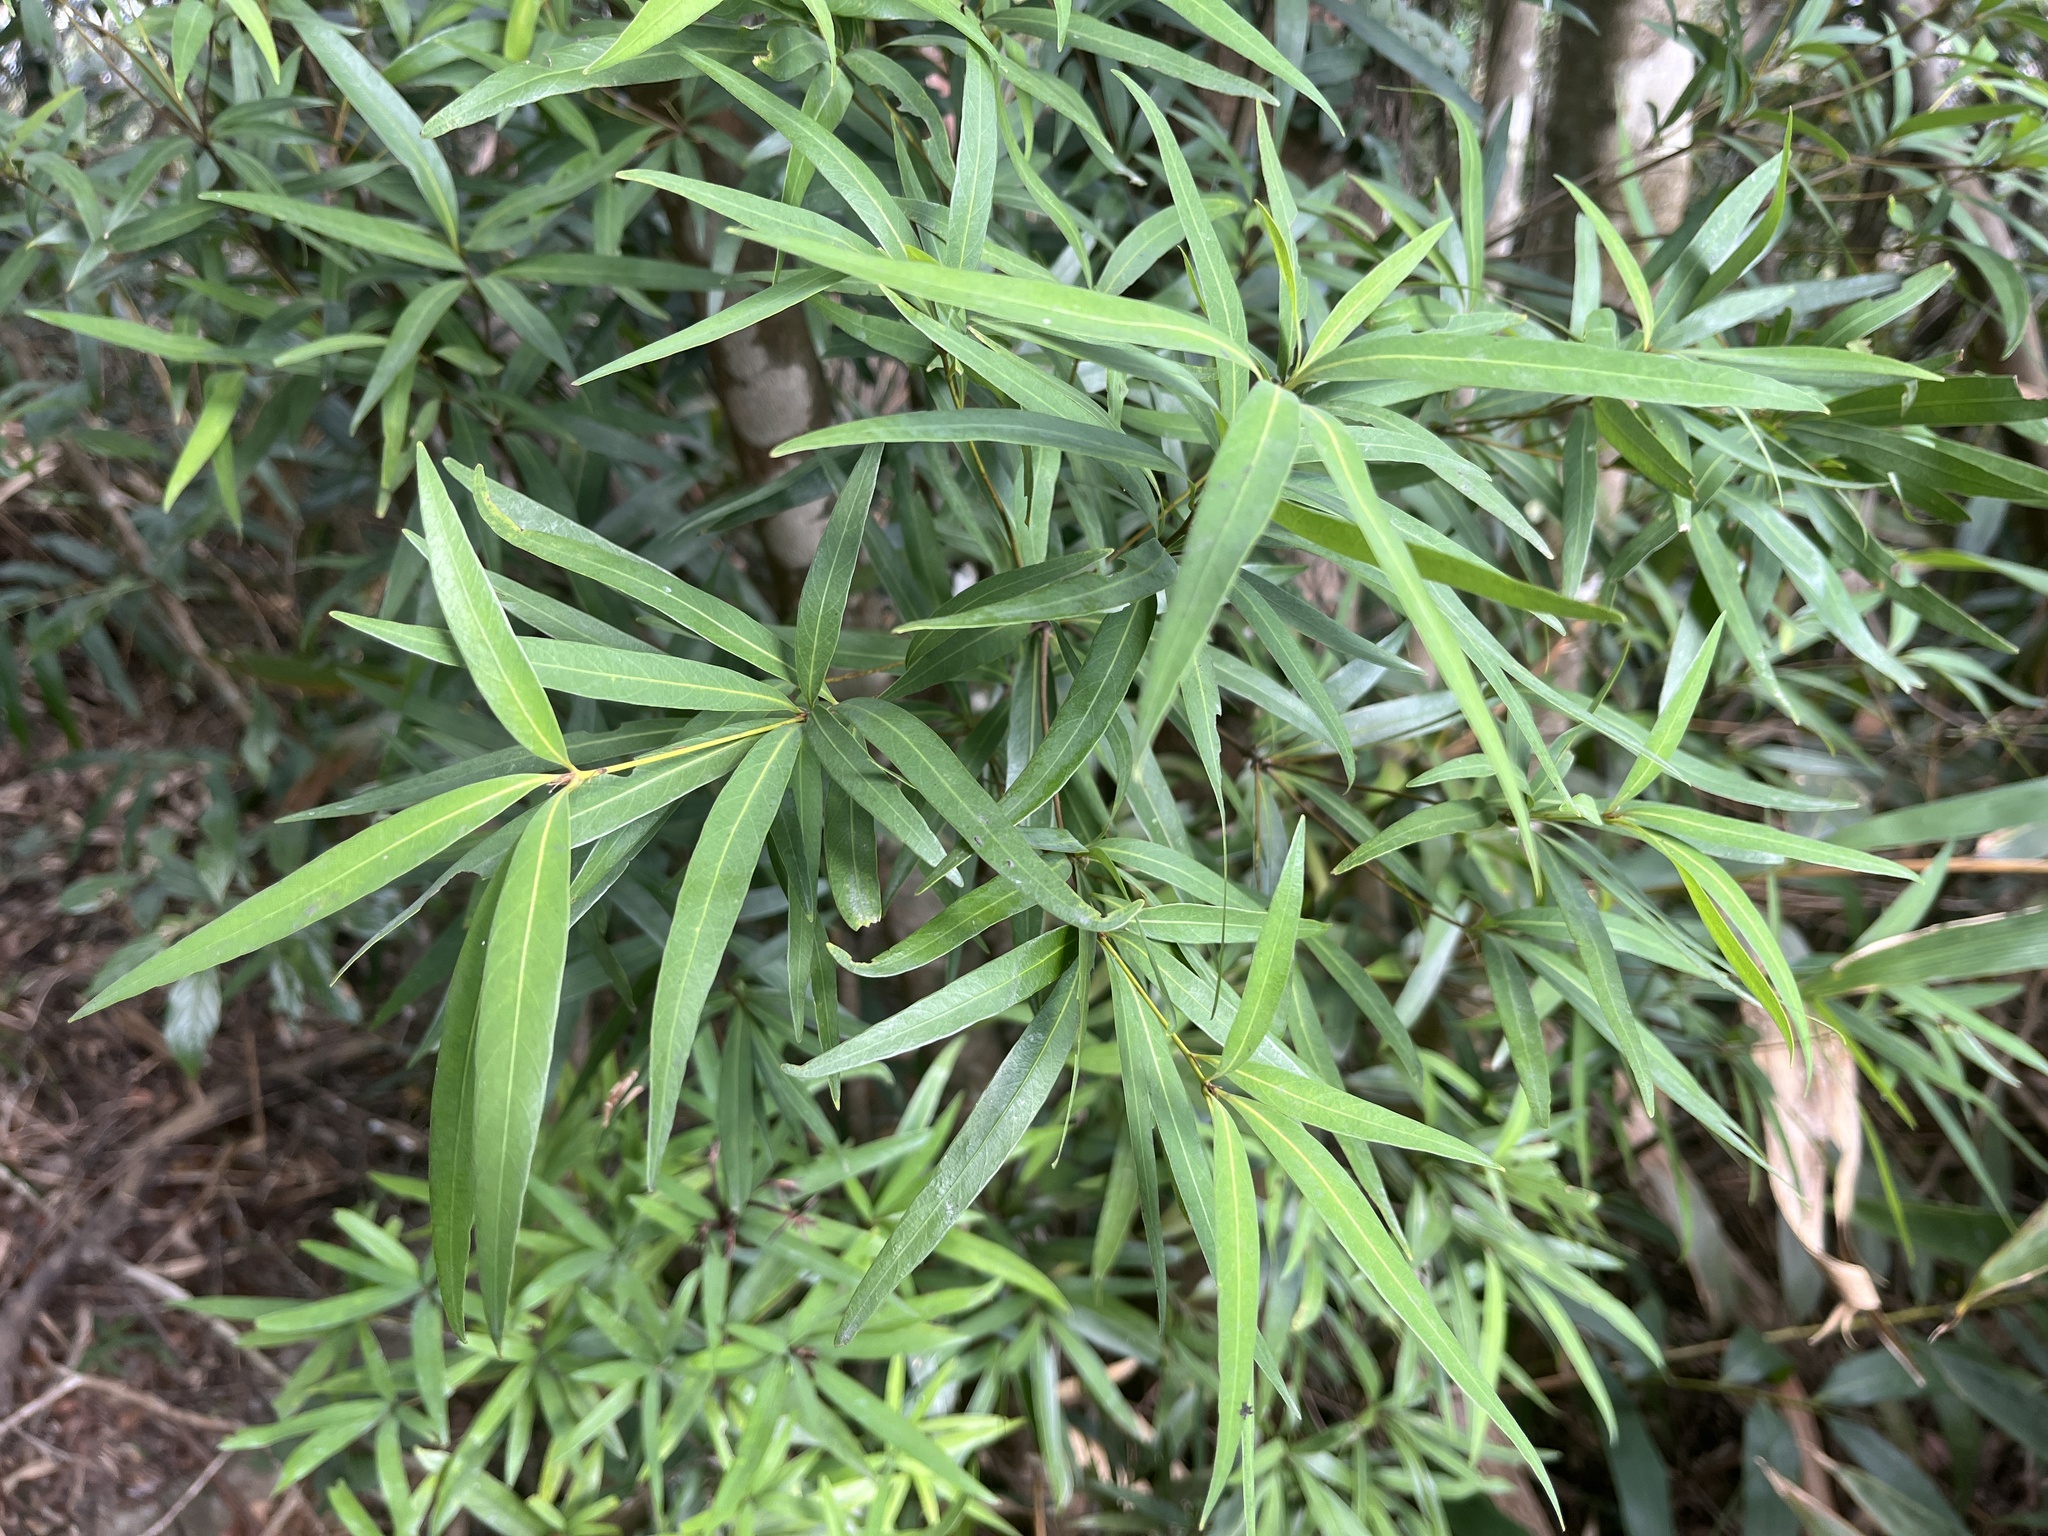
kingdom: Plantae
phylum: Tracheophyta
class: Magnoliopsida
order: Fagales
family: Fagaceae
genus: Quercus
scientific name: Quercus bambusifolia
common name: Bamboo-leaf oak
